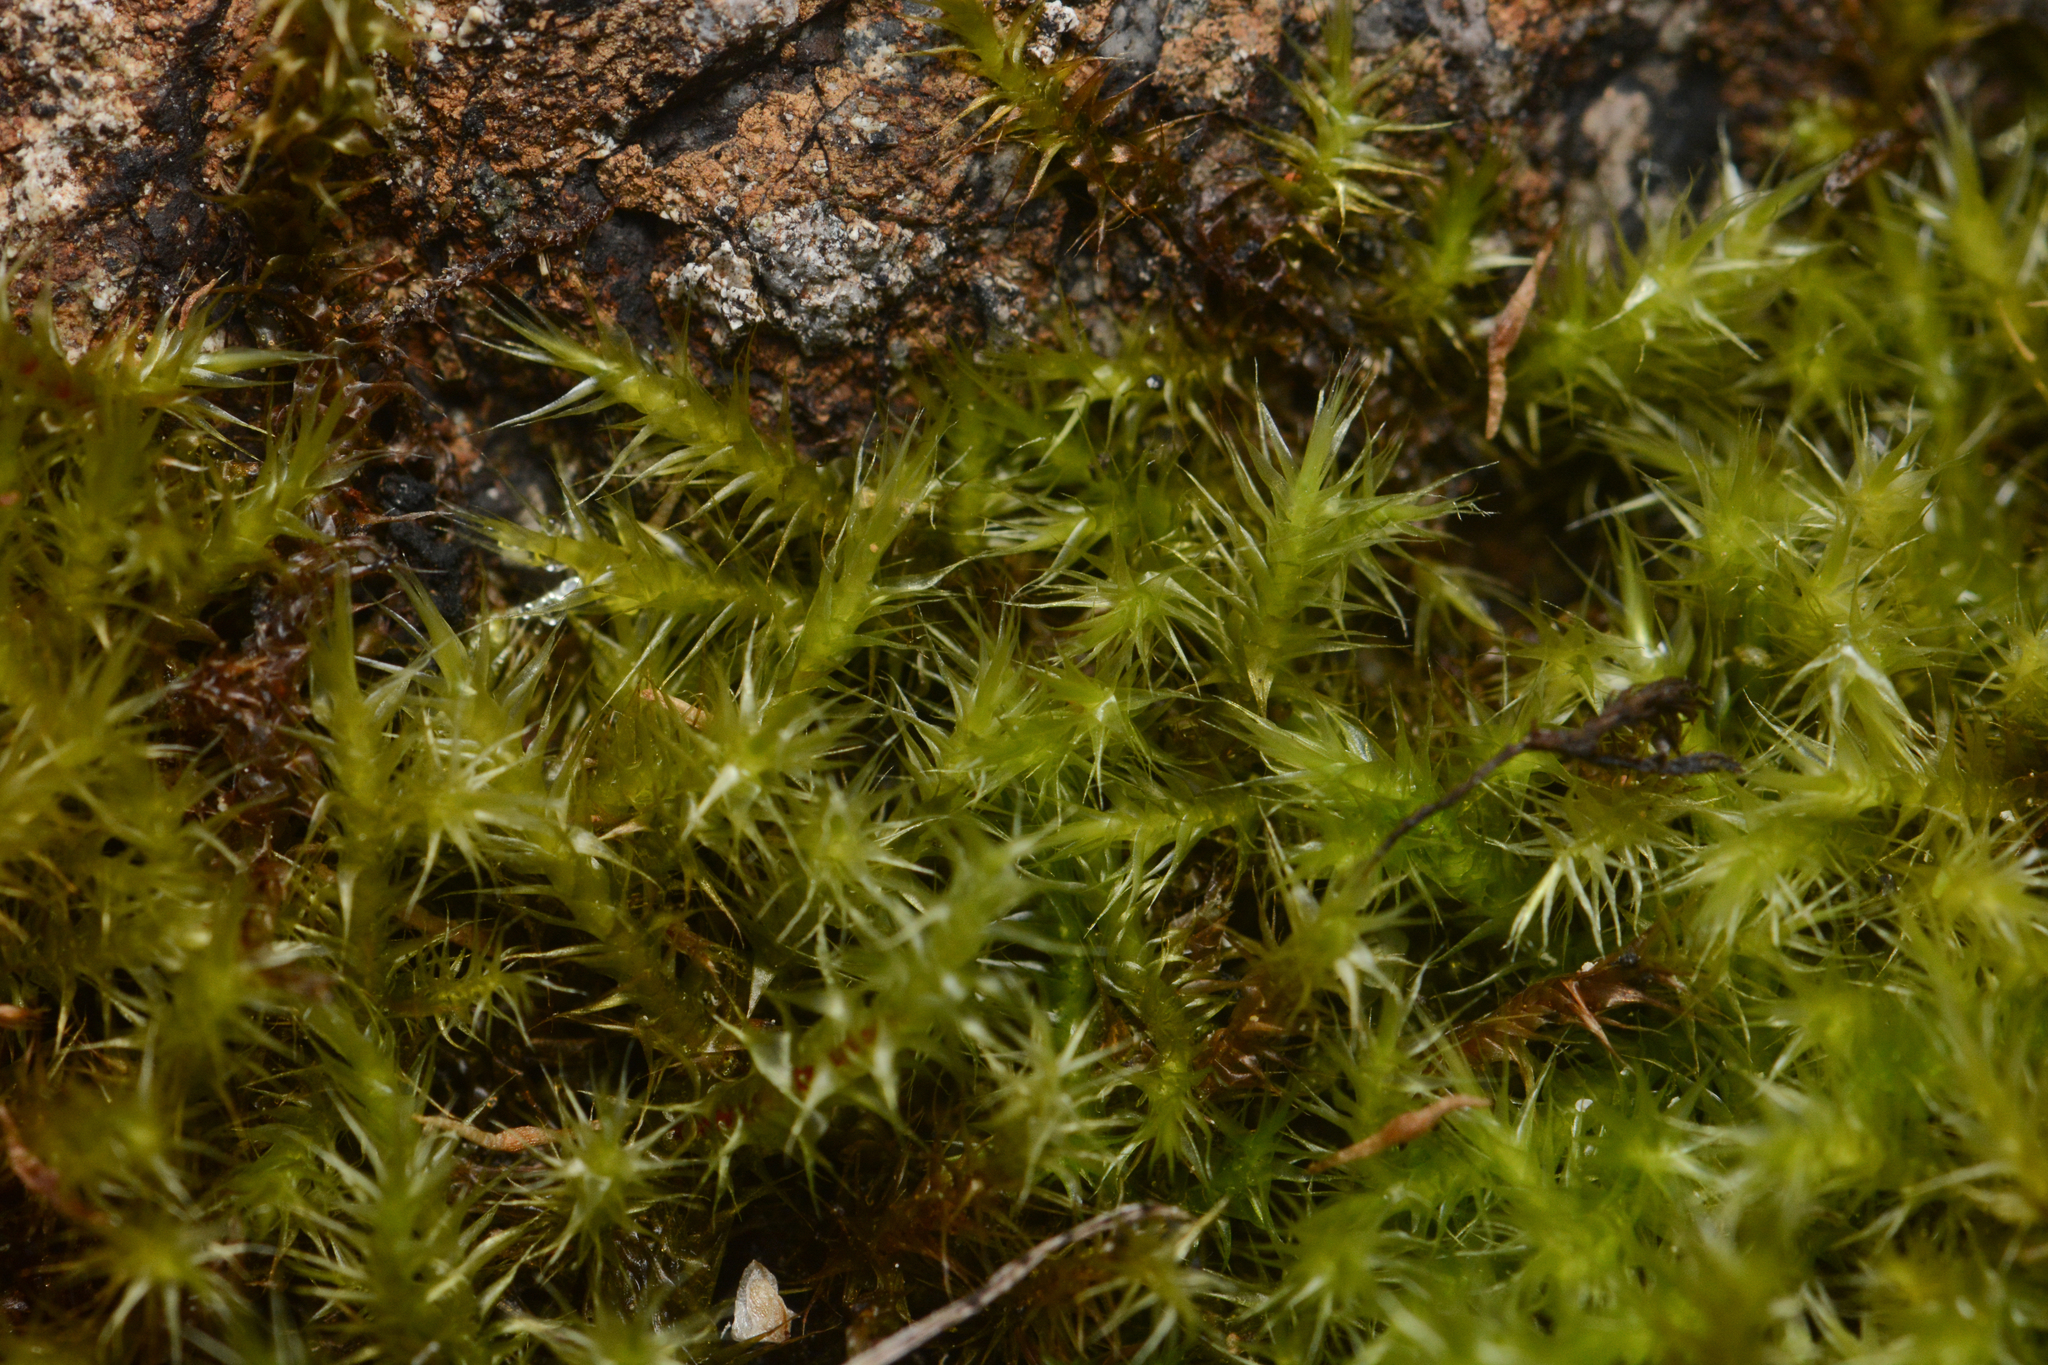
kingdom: Plantae
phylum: Bryophyta
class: Bryopsida
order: Hypnales
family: Amblystegiaceae
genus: Campylium
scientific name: Campylium stellatum
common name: Yellow starry fen moss
